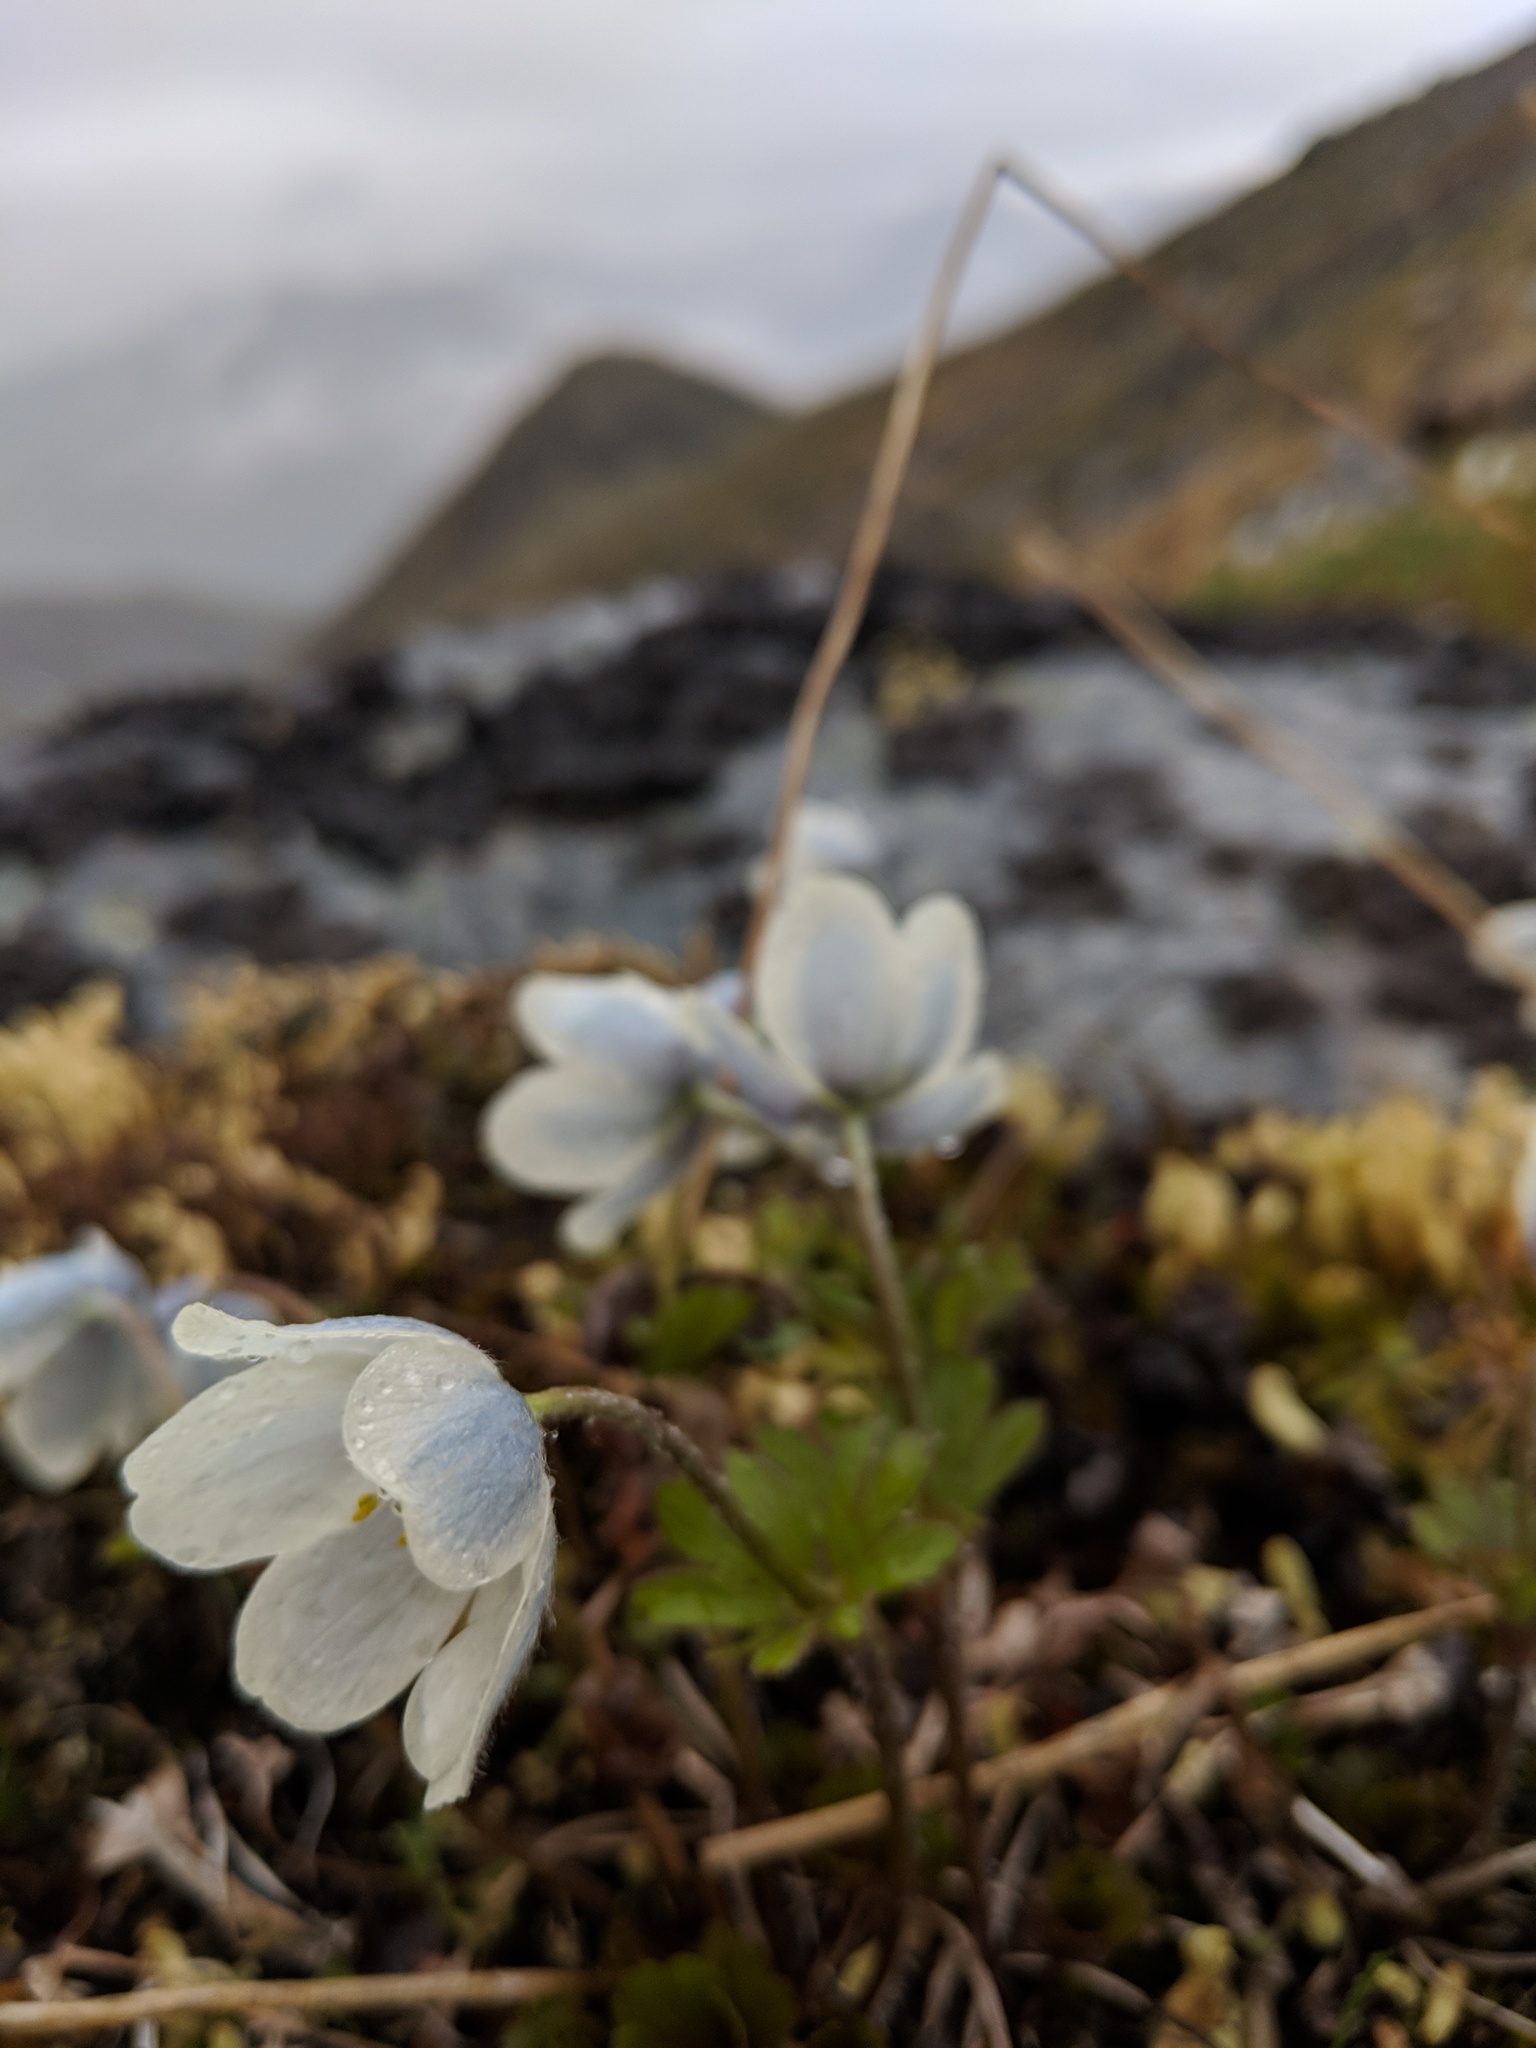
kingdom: Plantae
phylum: Tracheophyta
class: Magnoliopsida
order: Ranunculales
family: Ranunculaceae
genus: Anemone
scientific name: Anemone parviflora
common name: Northern anemone
